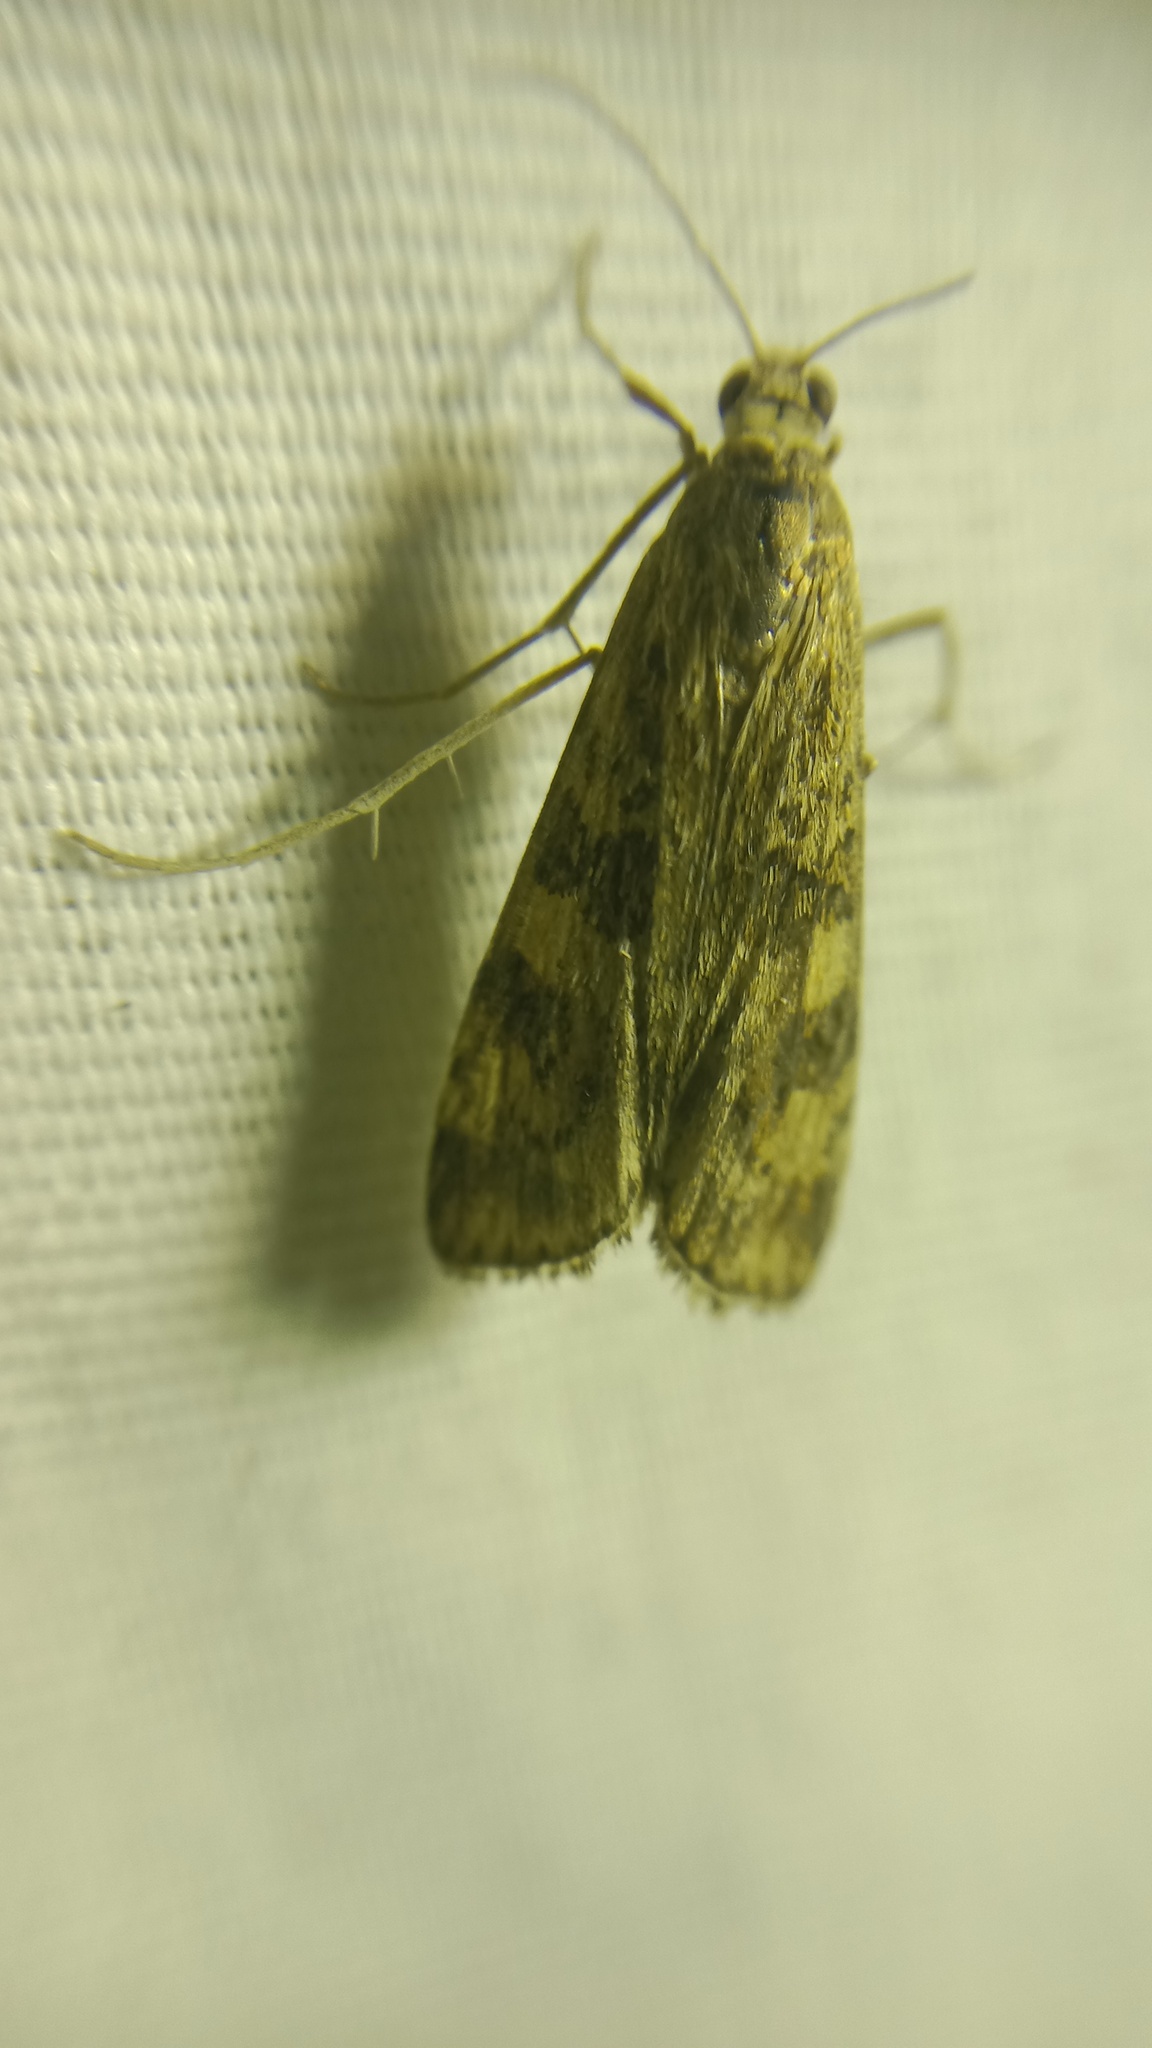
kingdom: Animalia
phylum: Arthropoda
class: Insecta
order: Lepidoptera
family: Crambidae
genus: Nomophila
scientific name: Nomophila noctuella
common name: Rush veneer
